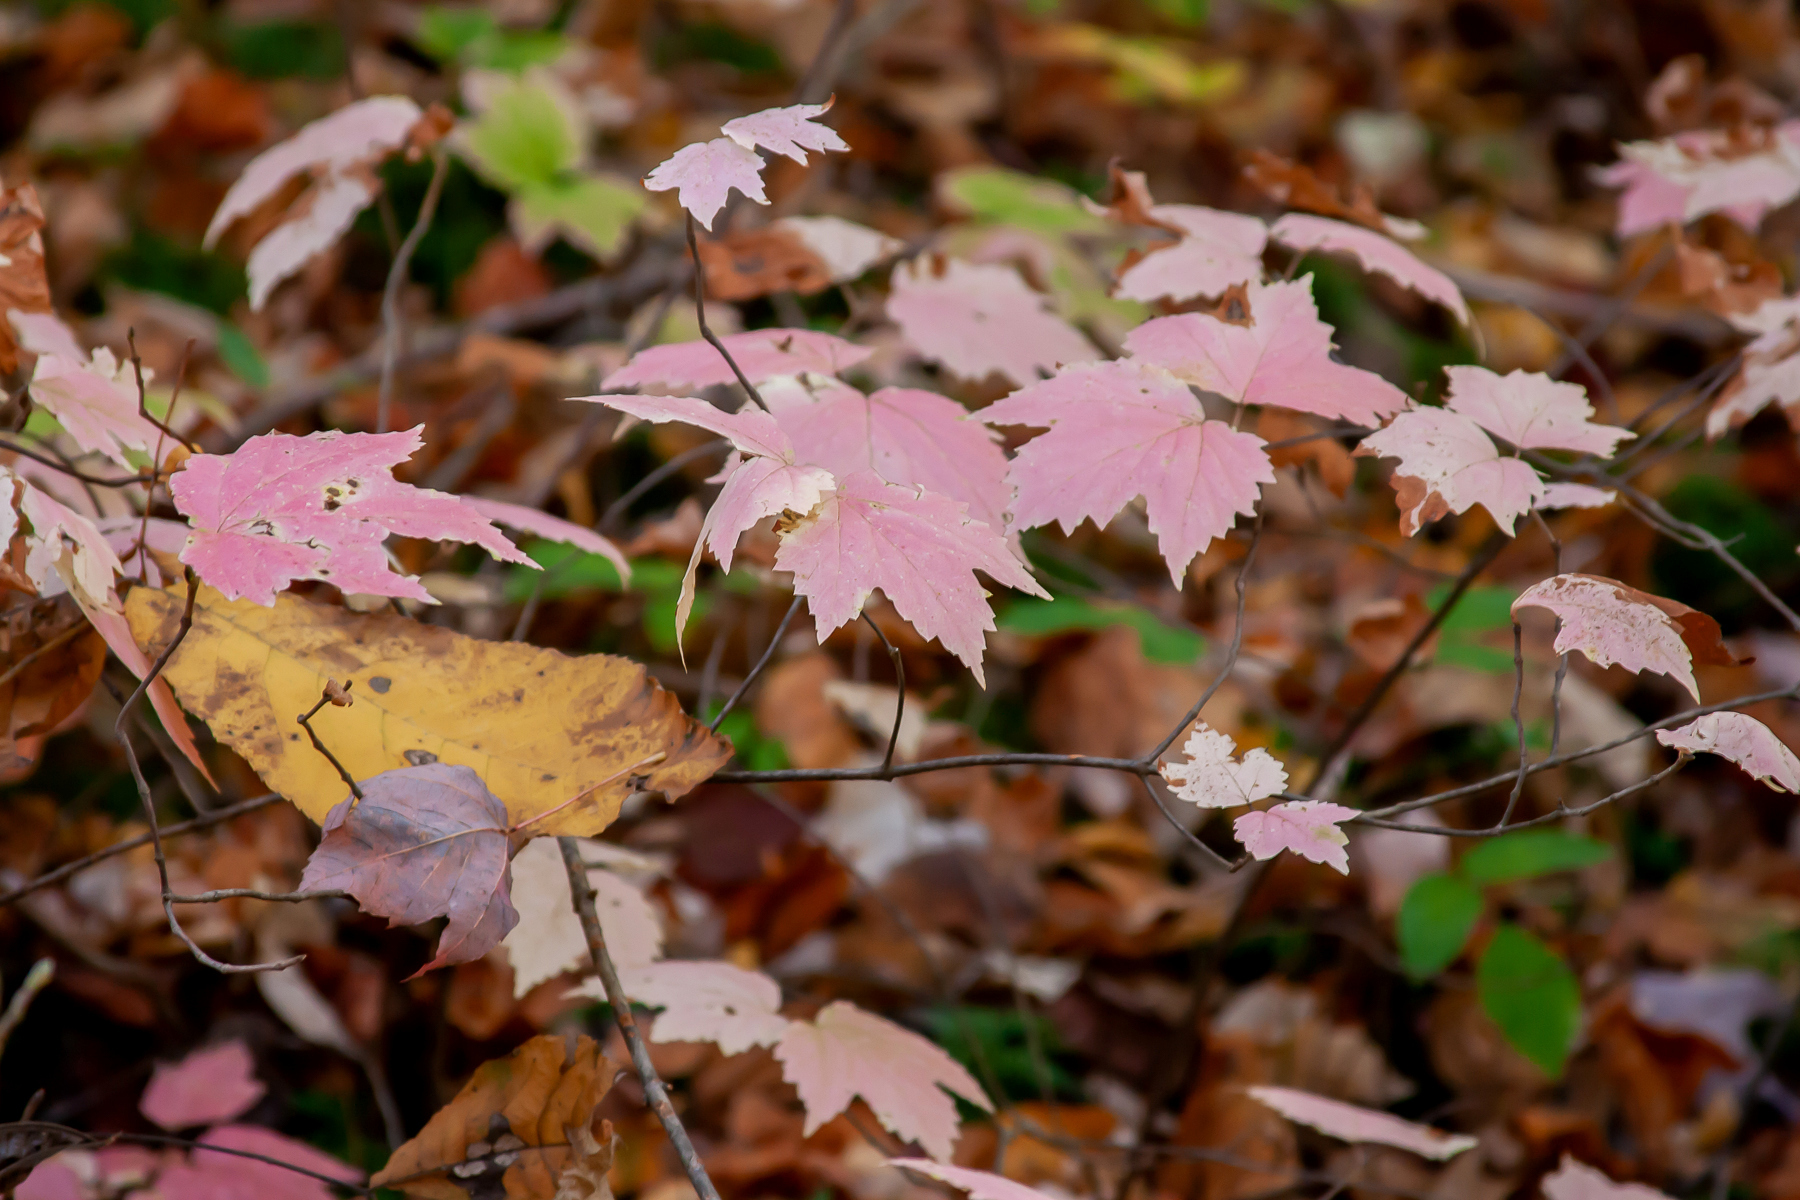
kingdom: Plantae
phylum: Tracheophyta
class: Magnoliopsida
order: Dipsacales
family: Viburnaceae
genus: Viburnum
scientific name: Viburnum acerifolium
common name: Dockmackie
